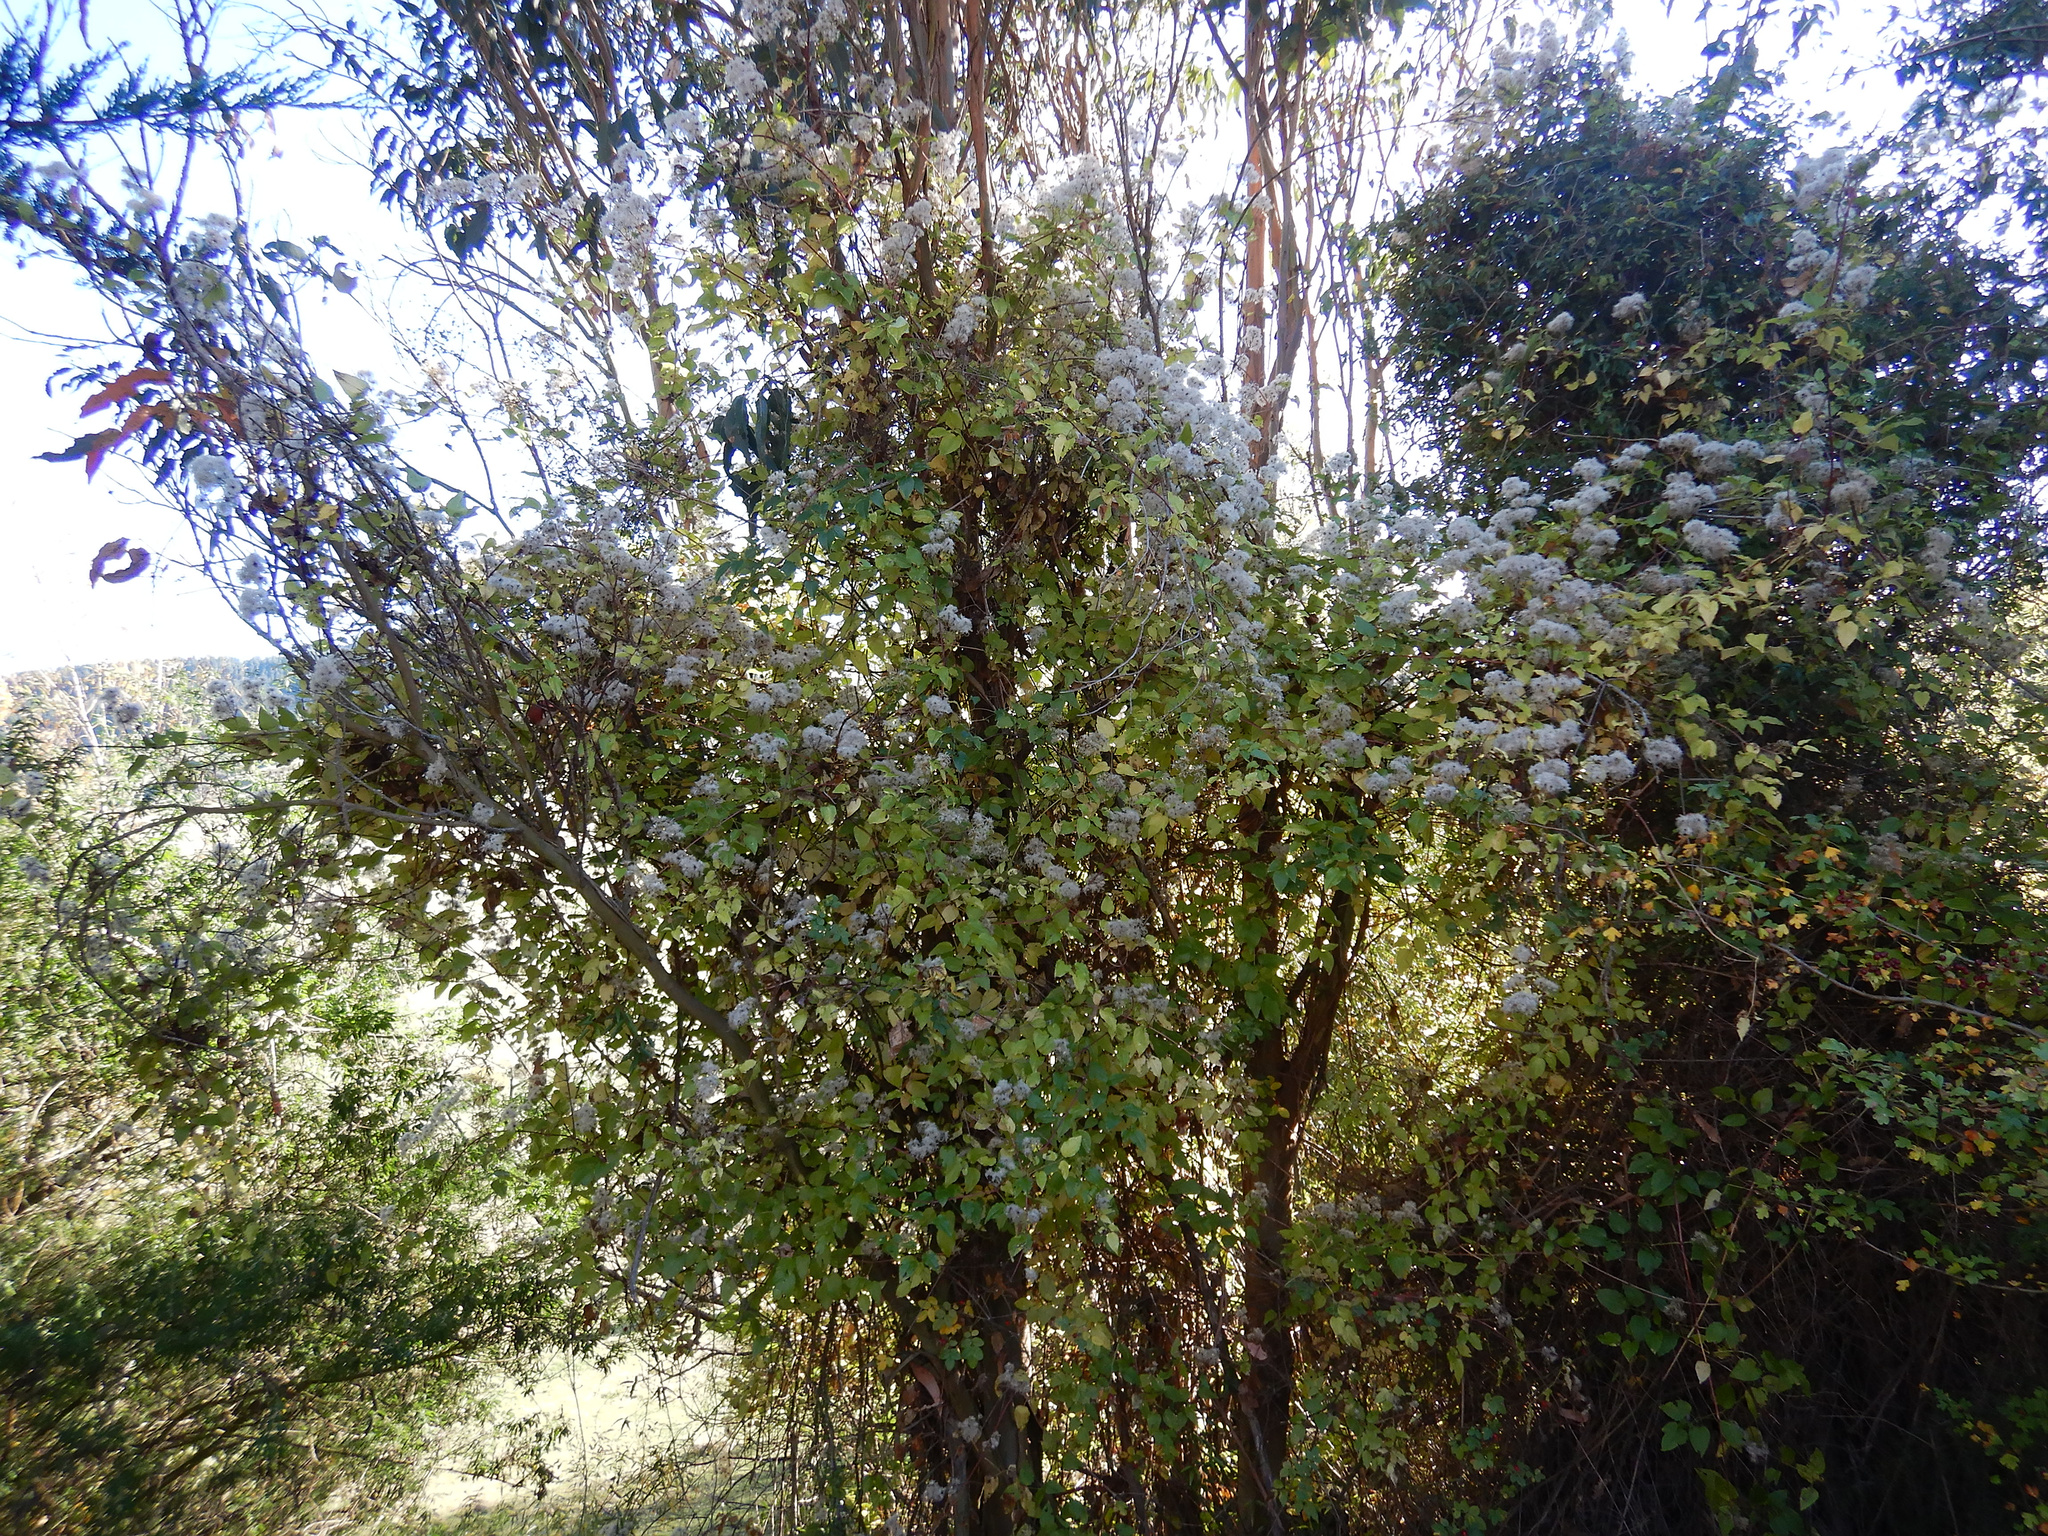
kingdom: Plantae
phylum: Tracheophyta
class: Magnoliopsida
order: Ranunculales
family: Ranunculaceae
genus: Clematis
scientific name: Clematis vitalba
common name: Evergreen clematis
